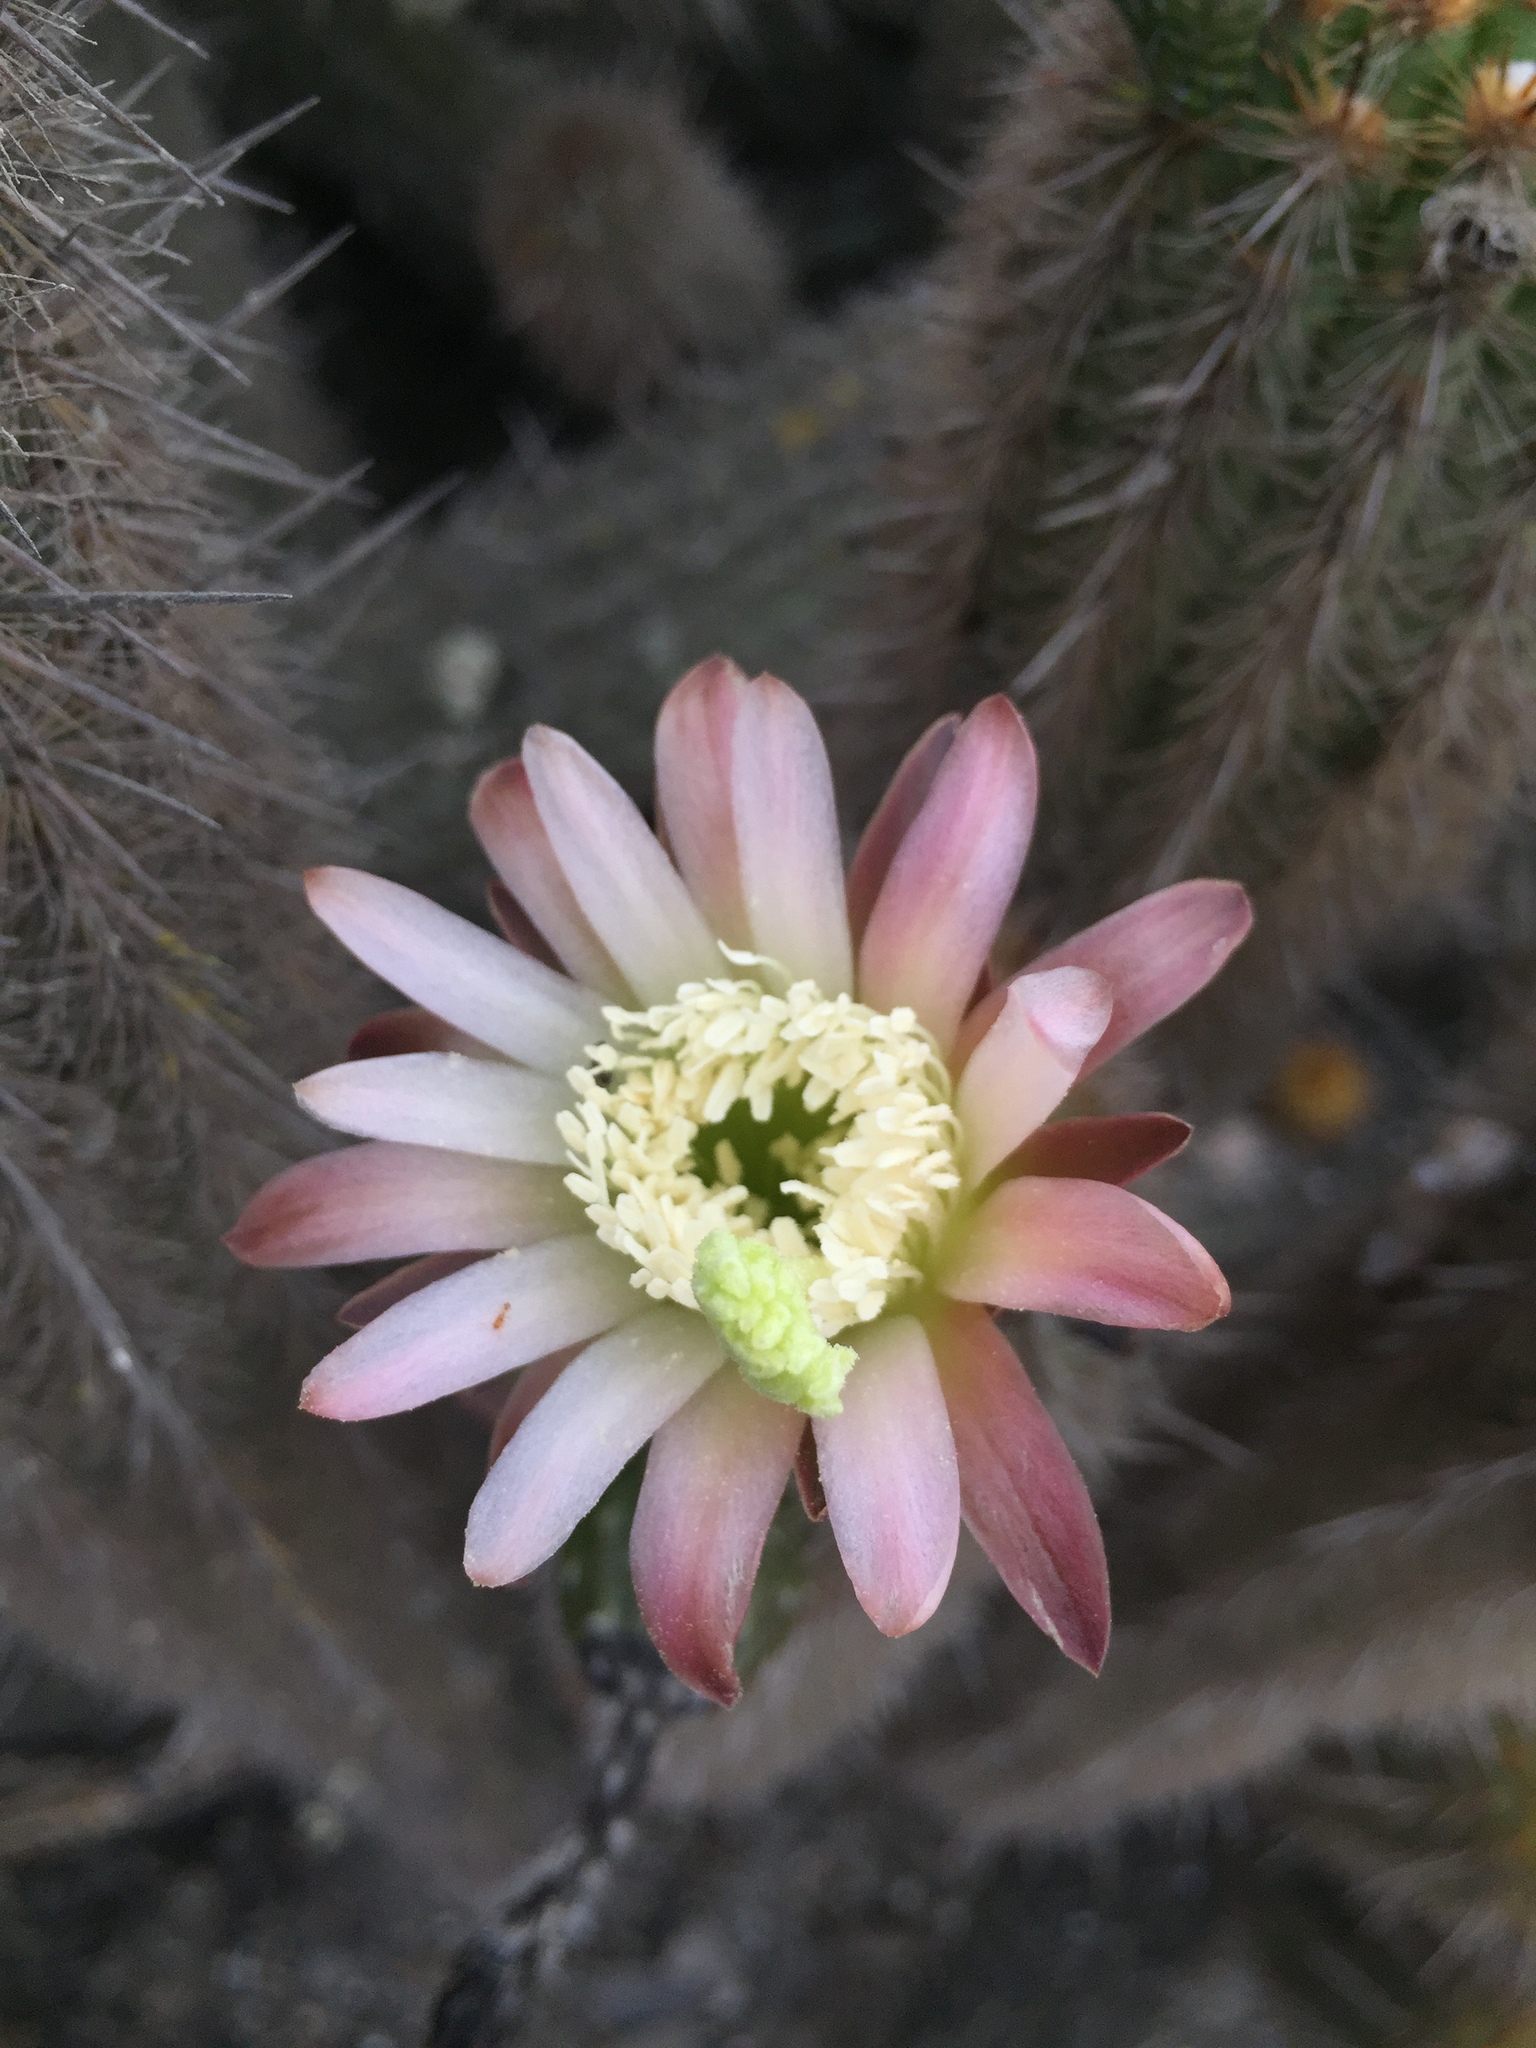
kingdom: Plantae
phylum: Tracheophyta
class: Magnoliopsida
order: Caryophyllales
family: Cactaceae
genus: Haageocereus
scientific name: Haageocereus acranthus
